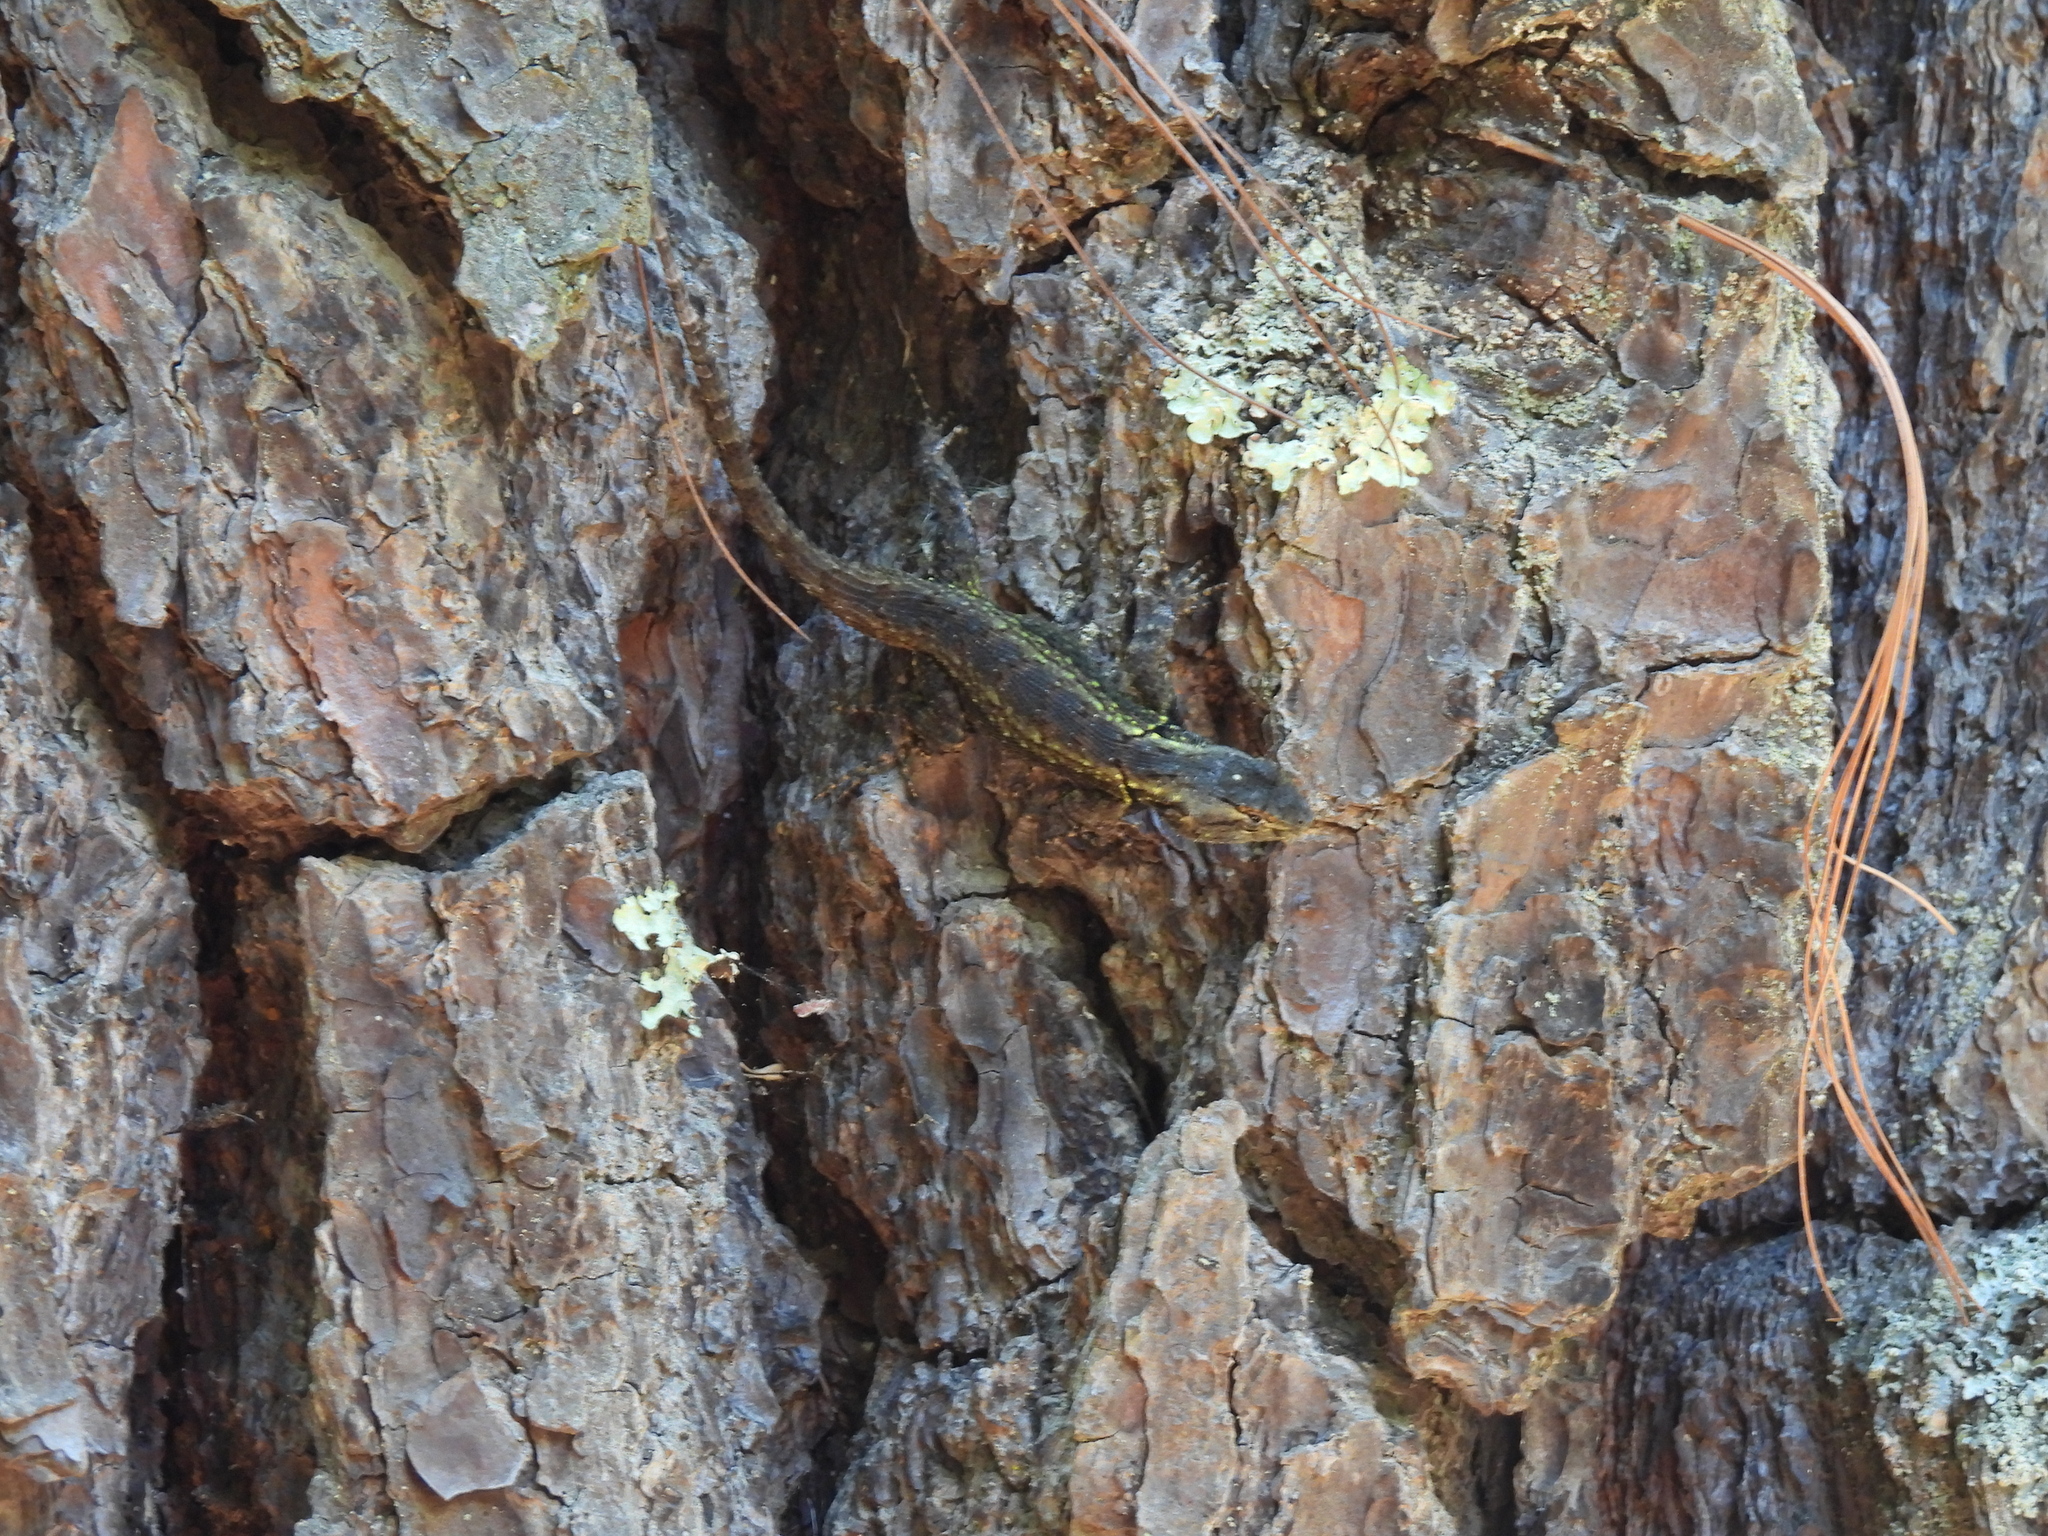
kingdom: Animalia
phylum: Chordata
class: Squamata
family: Phrynosomatidae
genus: Sceloporus
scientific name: Sceloporus anahuacus
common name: Anahuacan bunchgrass lizard
